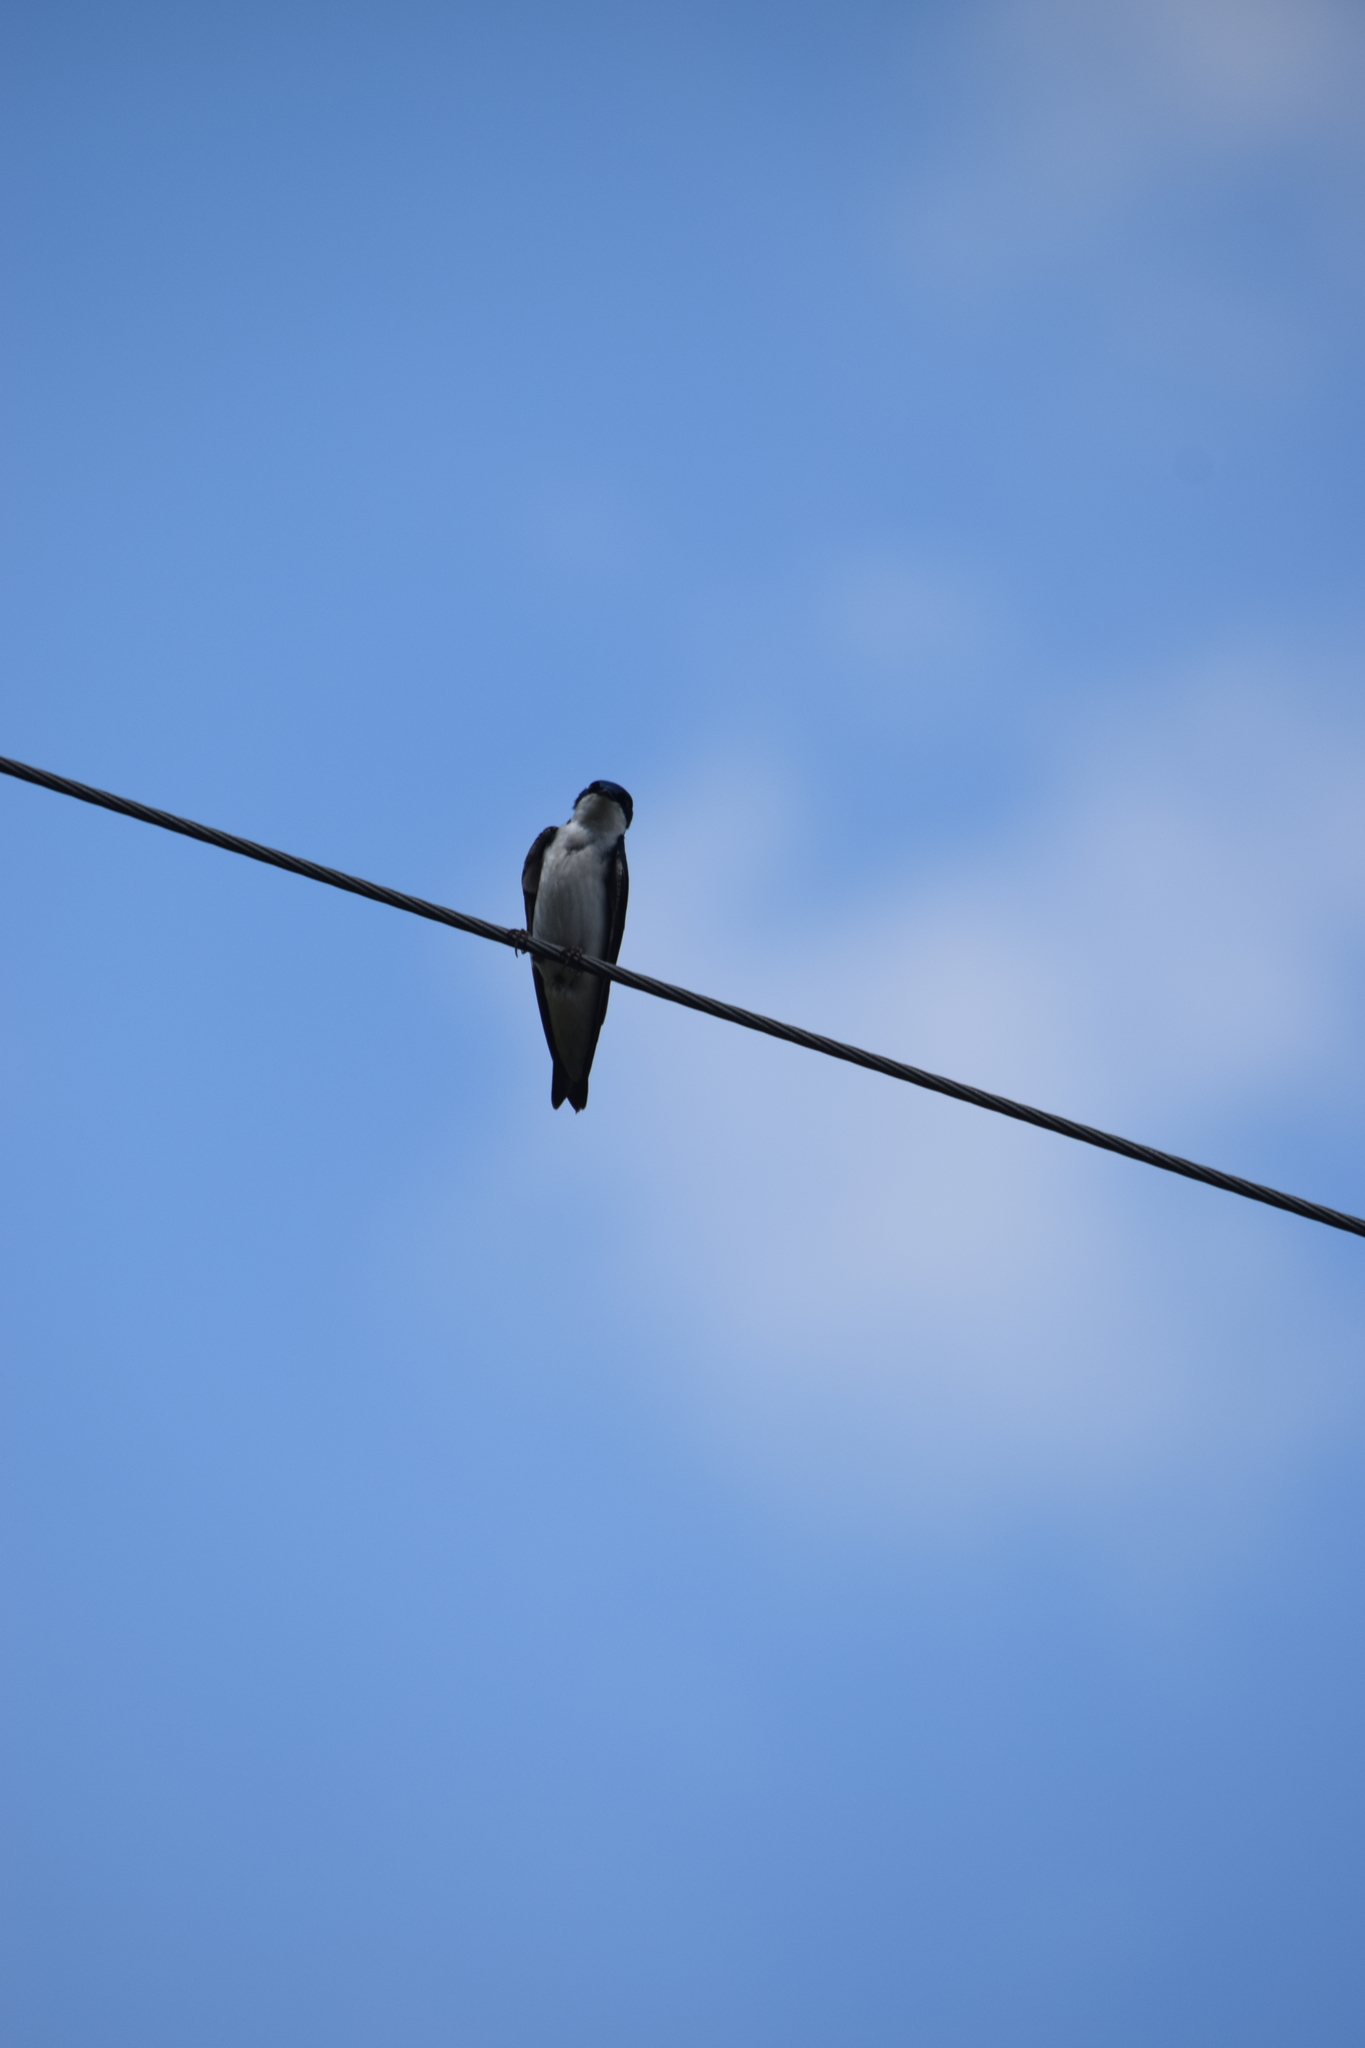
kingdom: Animalia
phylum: Chordata
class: Aves
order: Passeriformes
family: Hirundinidae
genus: Tachycineta
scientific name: Tachycineta bicolor
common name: Tree swallow
